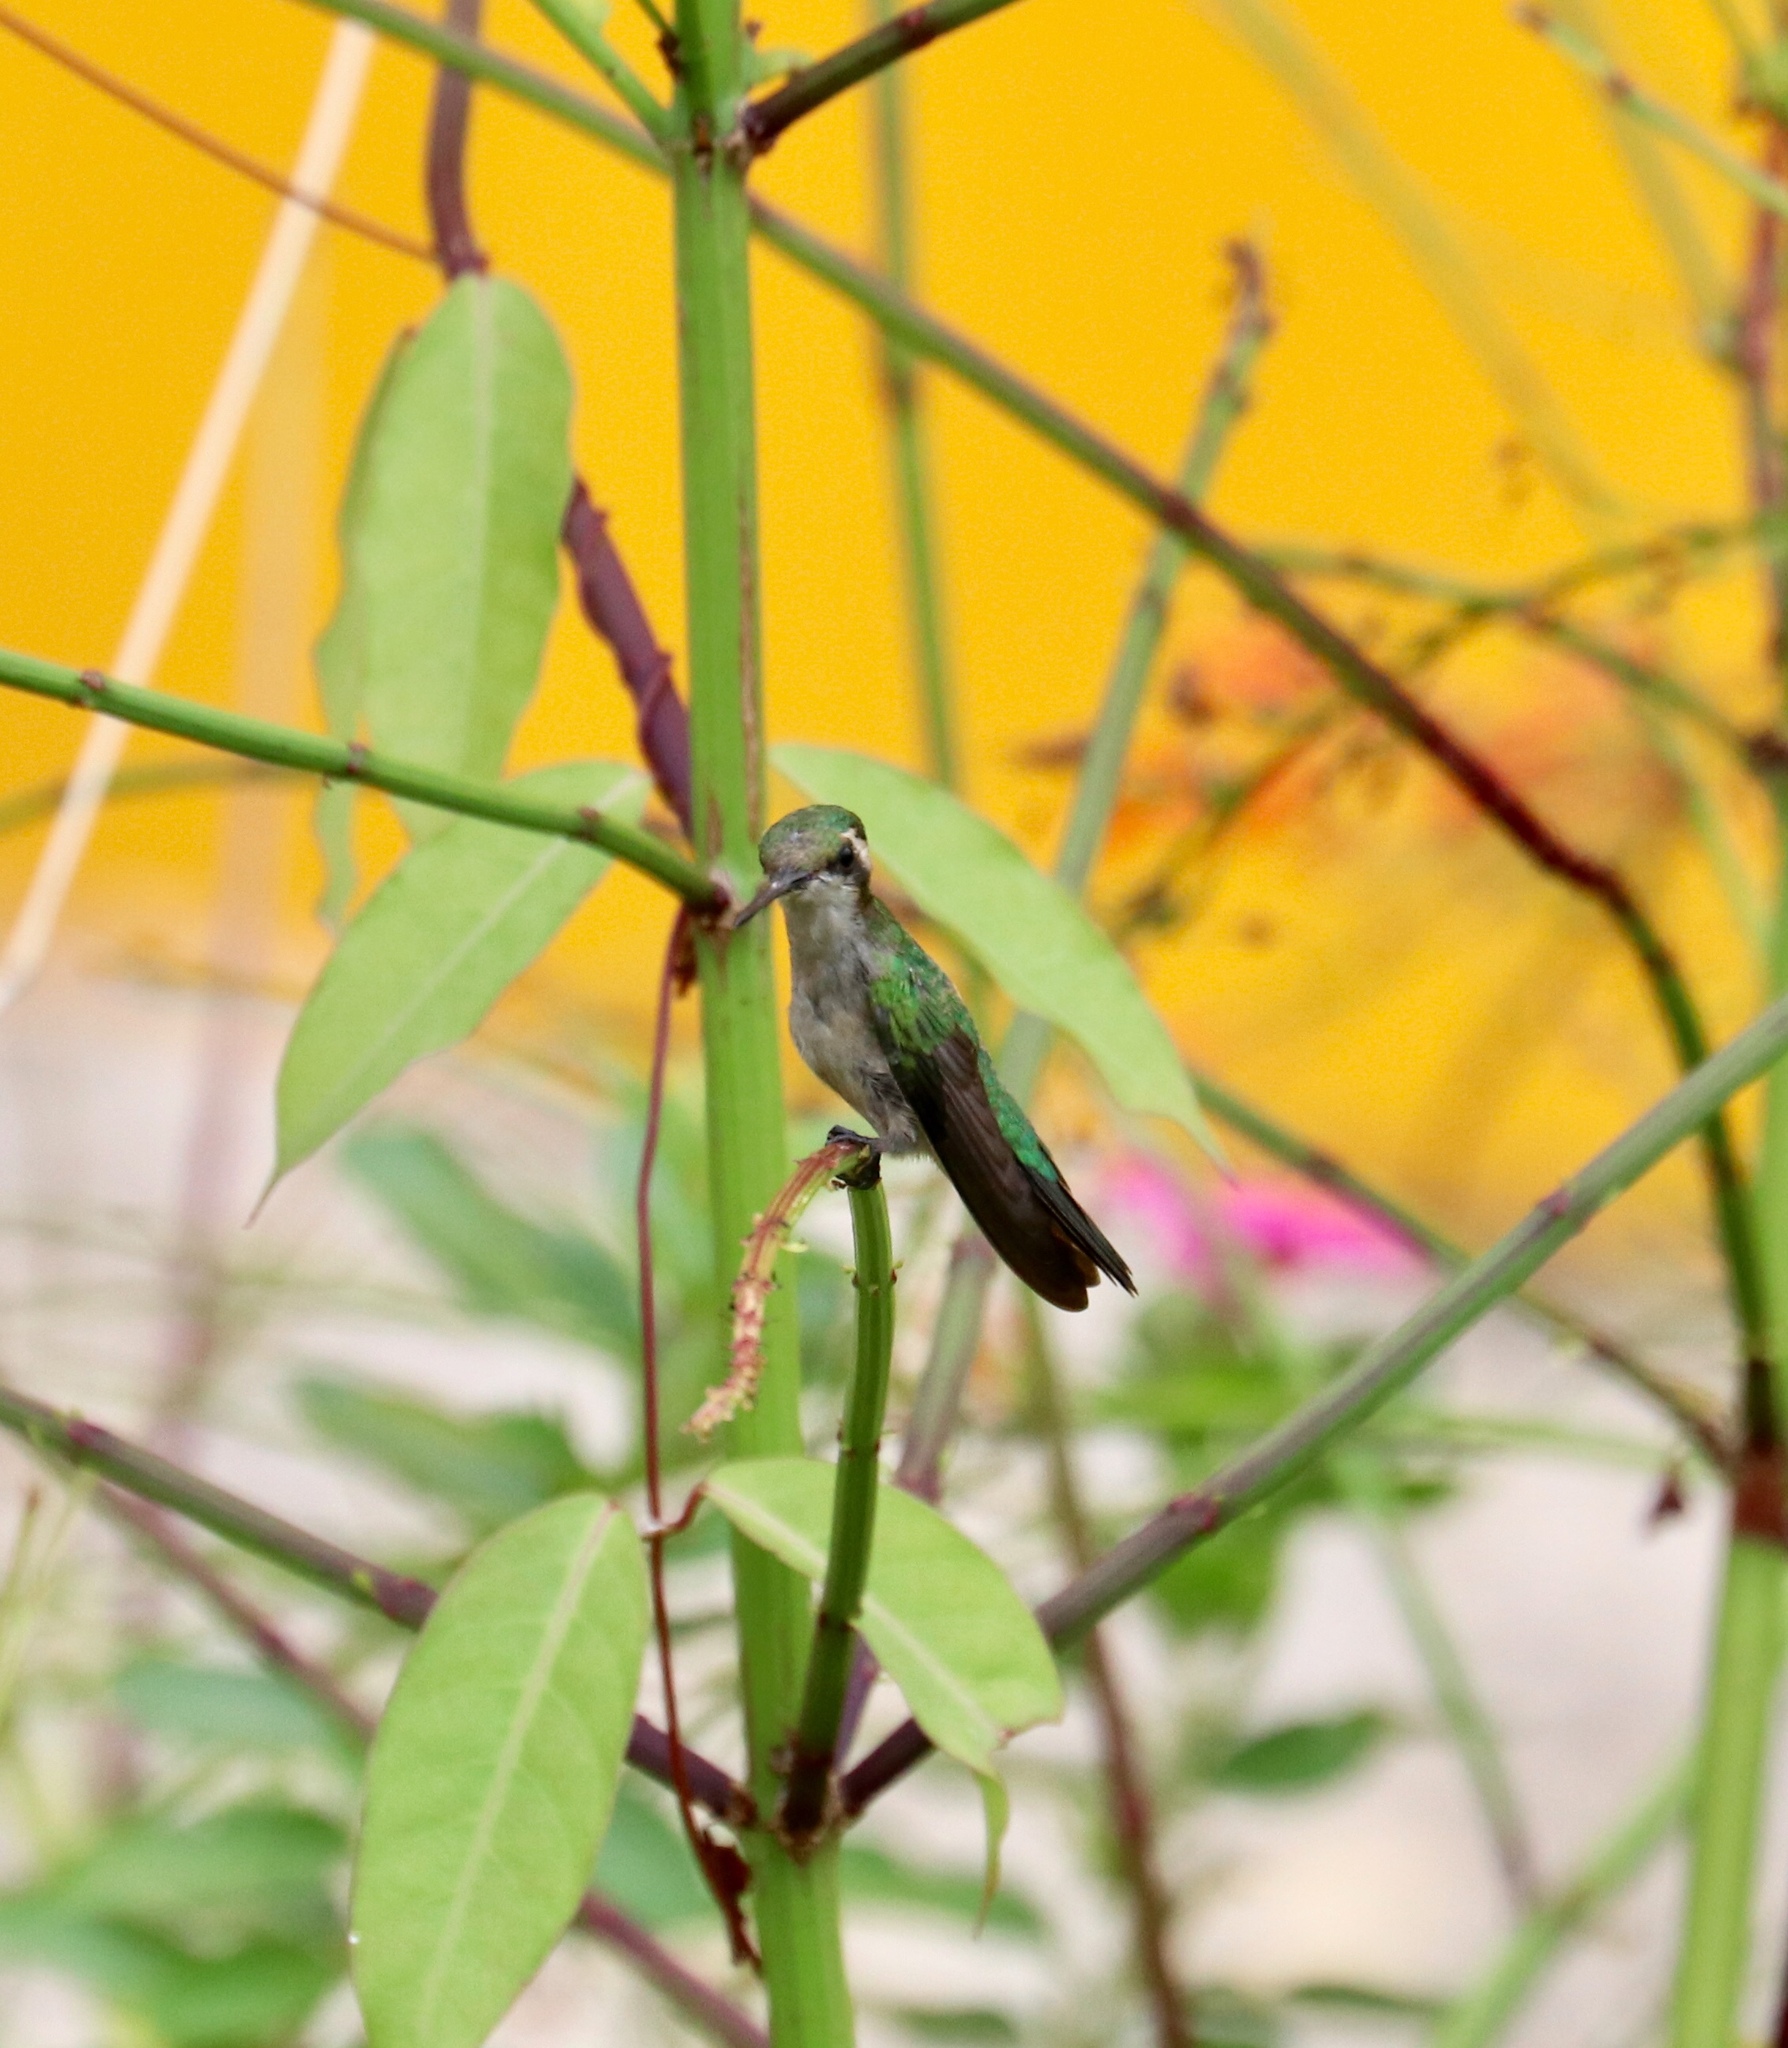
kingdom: Animalia
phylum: Chordata
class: Aves
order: Apodiformes
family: Trochilidae
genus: Chlorostilbon
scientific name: Chlorostilbon assimilis
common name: Garden emerald
